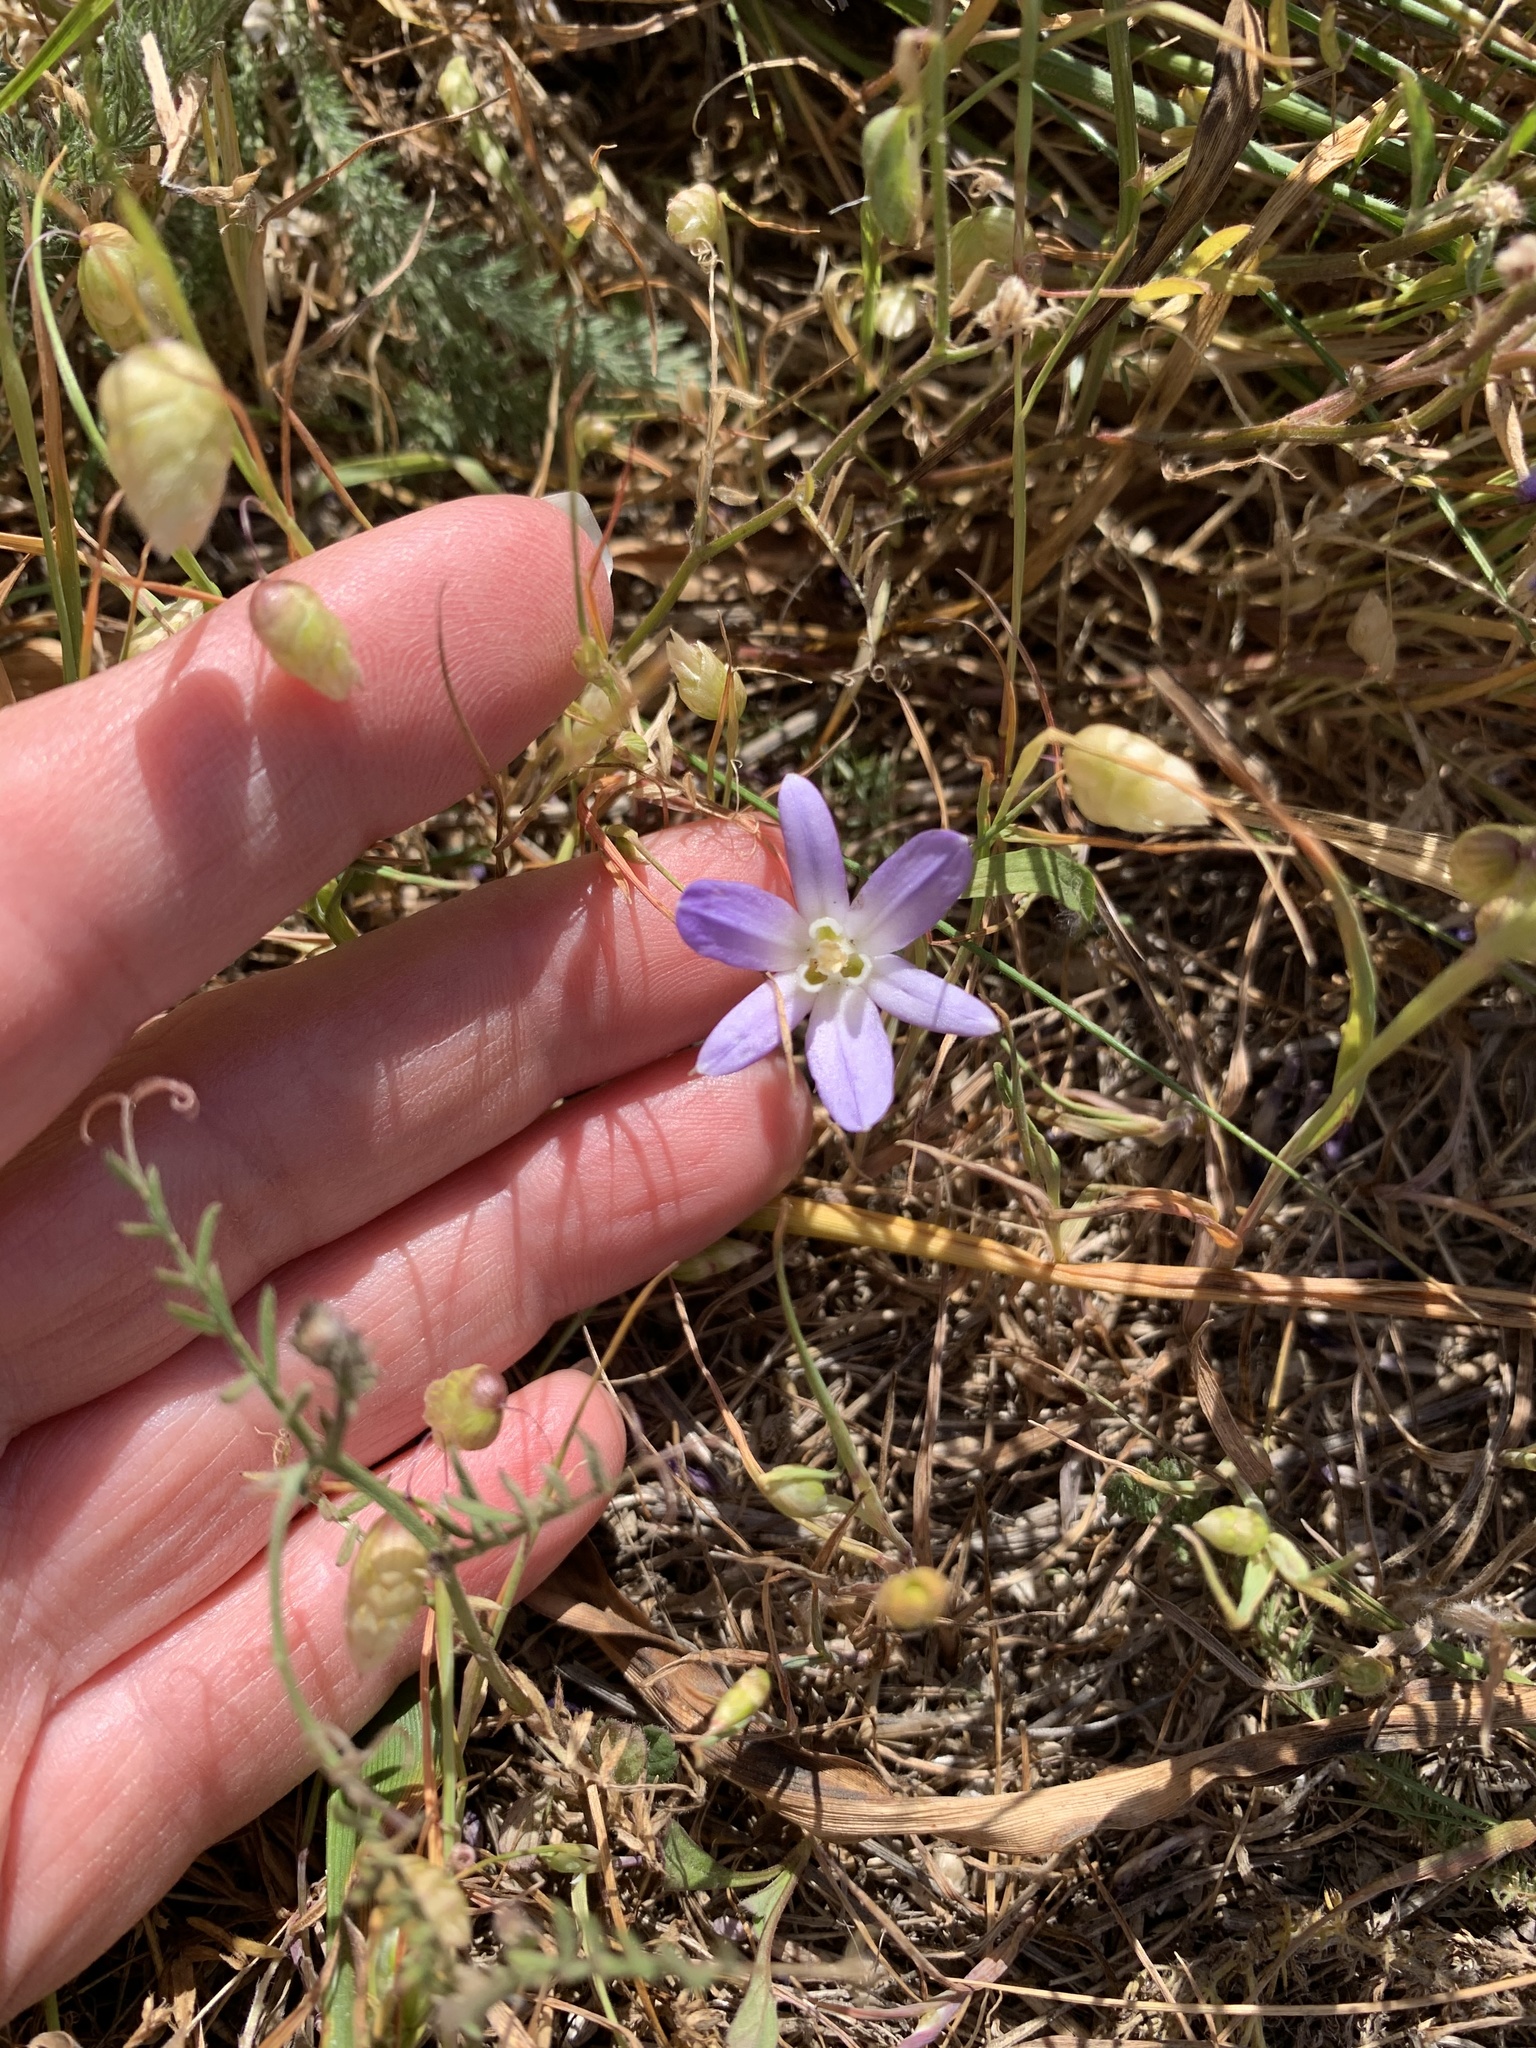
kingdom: Plantae
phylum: Tracheophyta
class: Liliopsida
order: Asparagales
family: Asparagaceae
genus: Brodiaea
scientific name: Brodiaea terrestris
